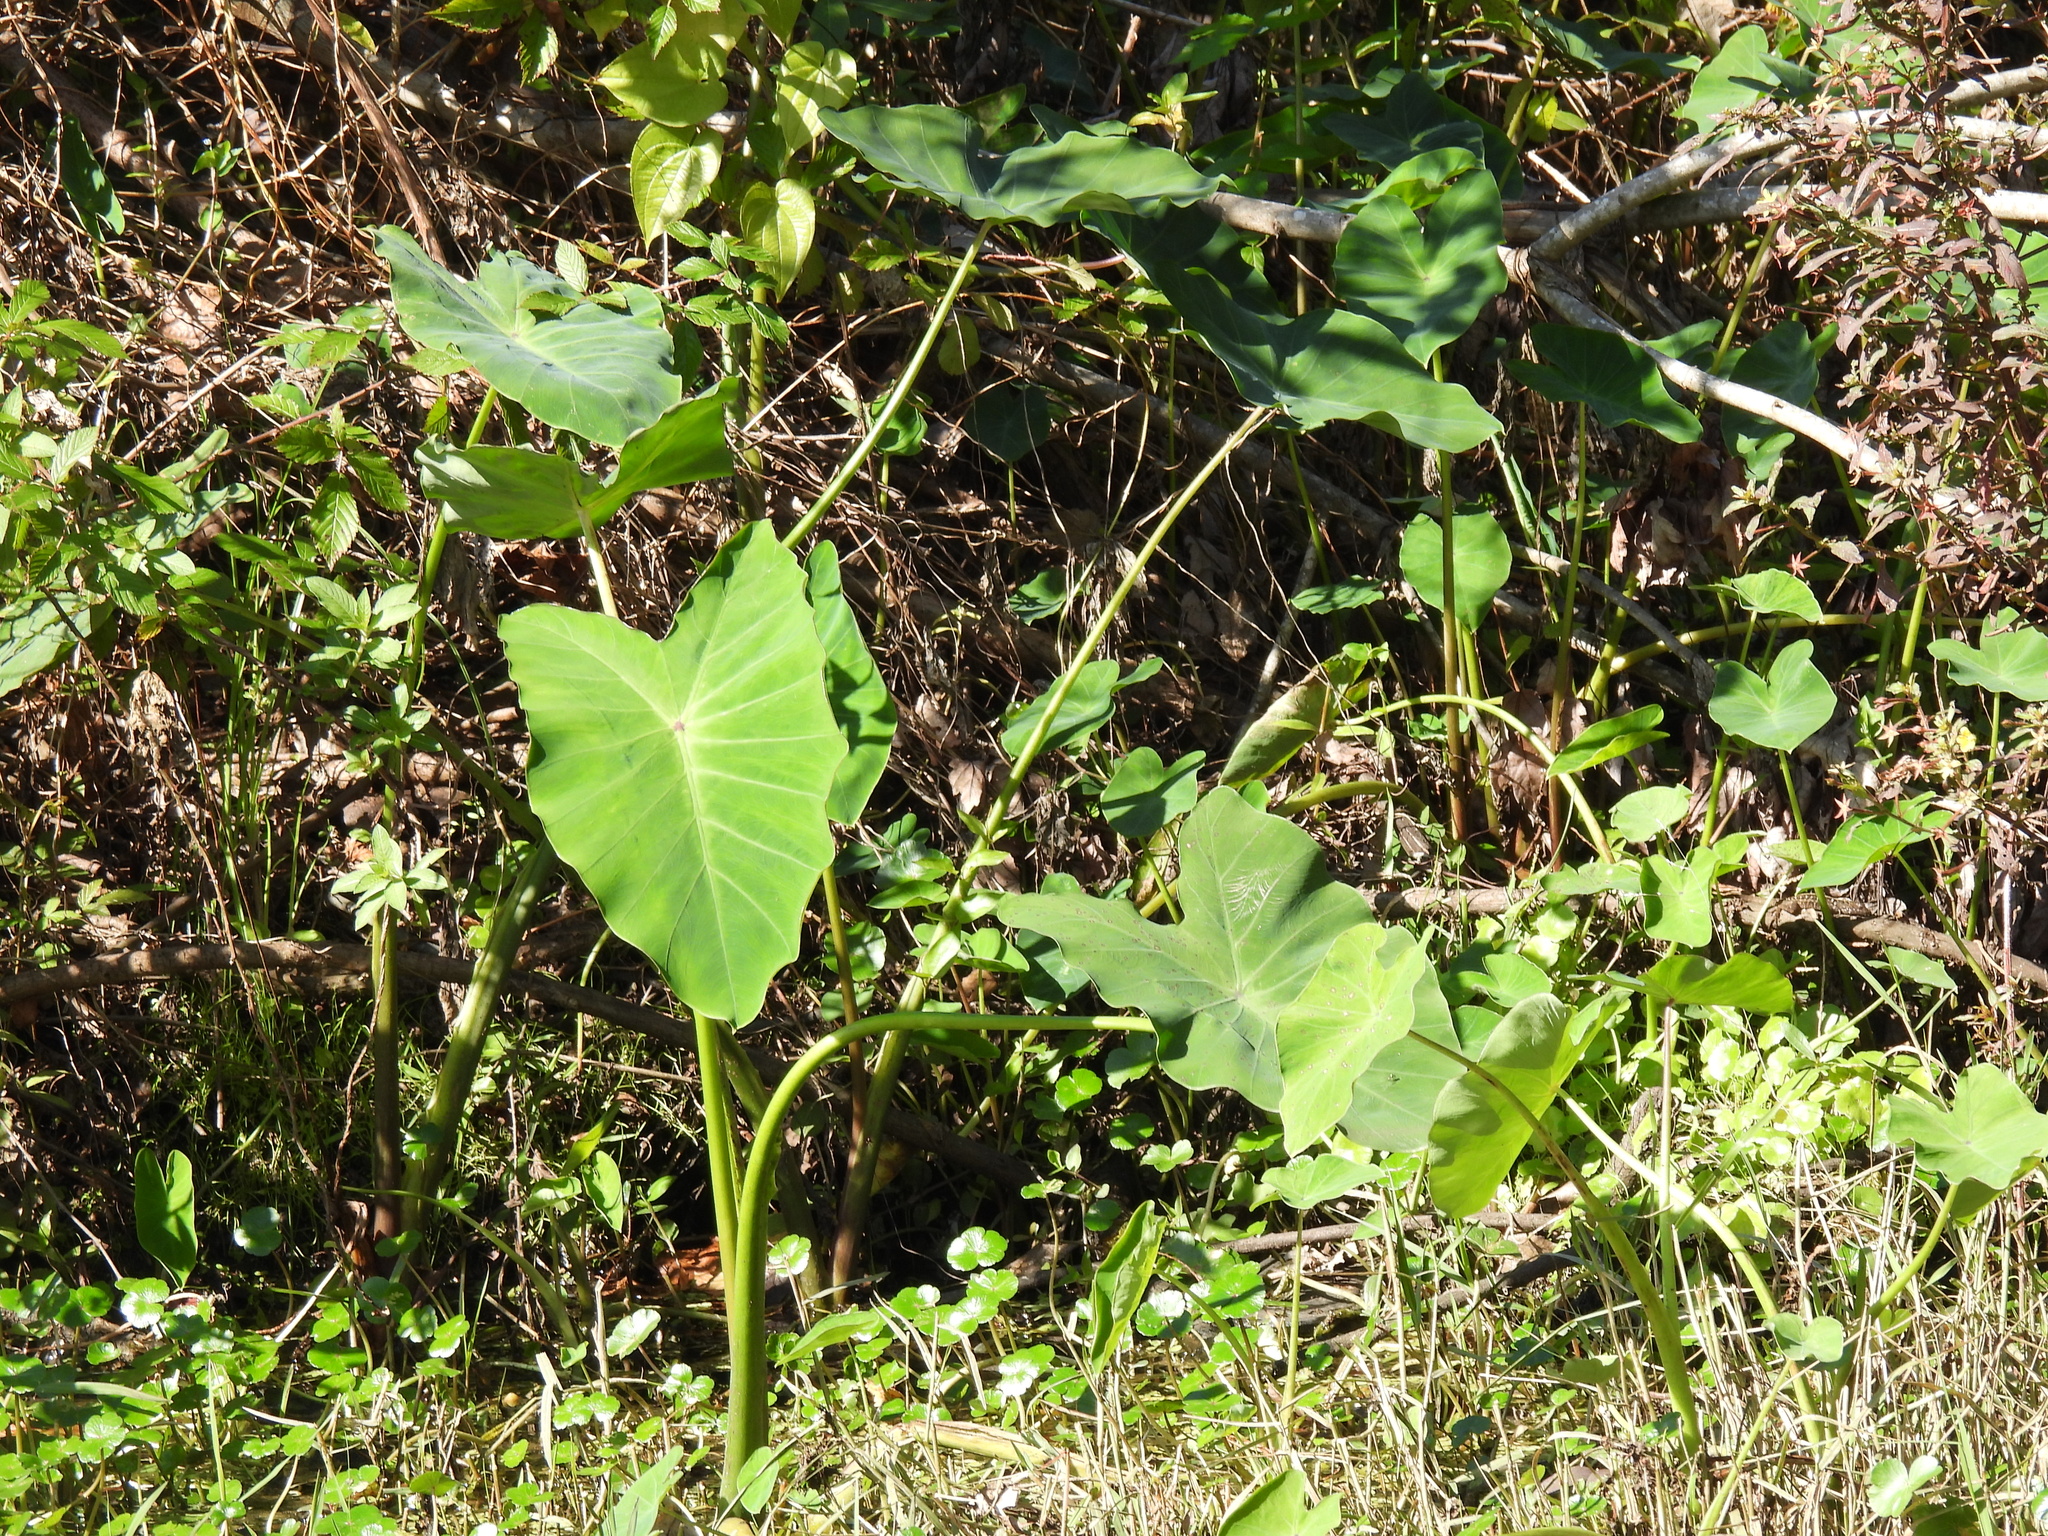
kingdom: Plantae
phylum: Tracheophyta
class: Liliopsida
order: Alismatales
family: Araceae
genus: Colocasia
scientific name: Colocasia esculenta
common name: Taro
